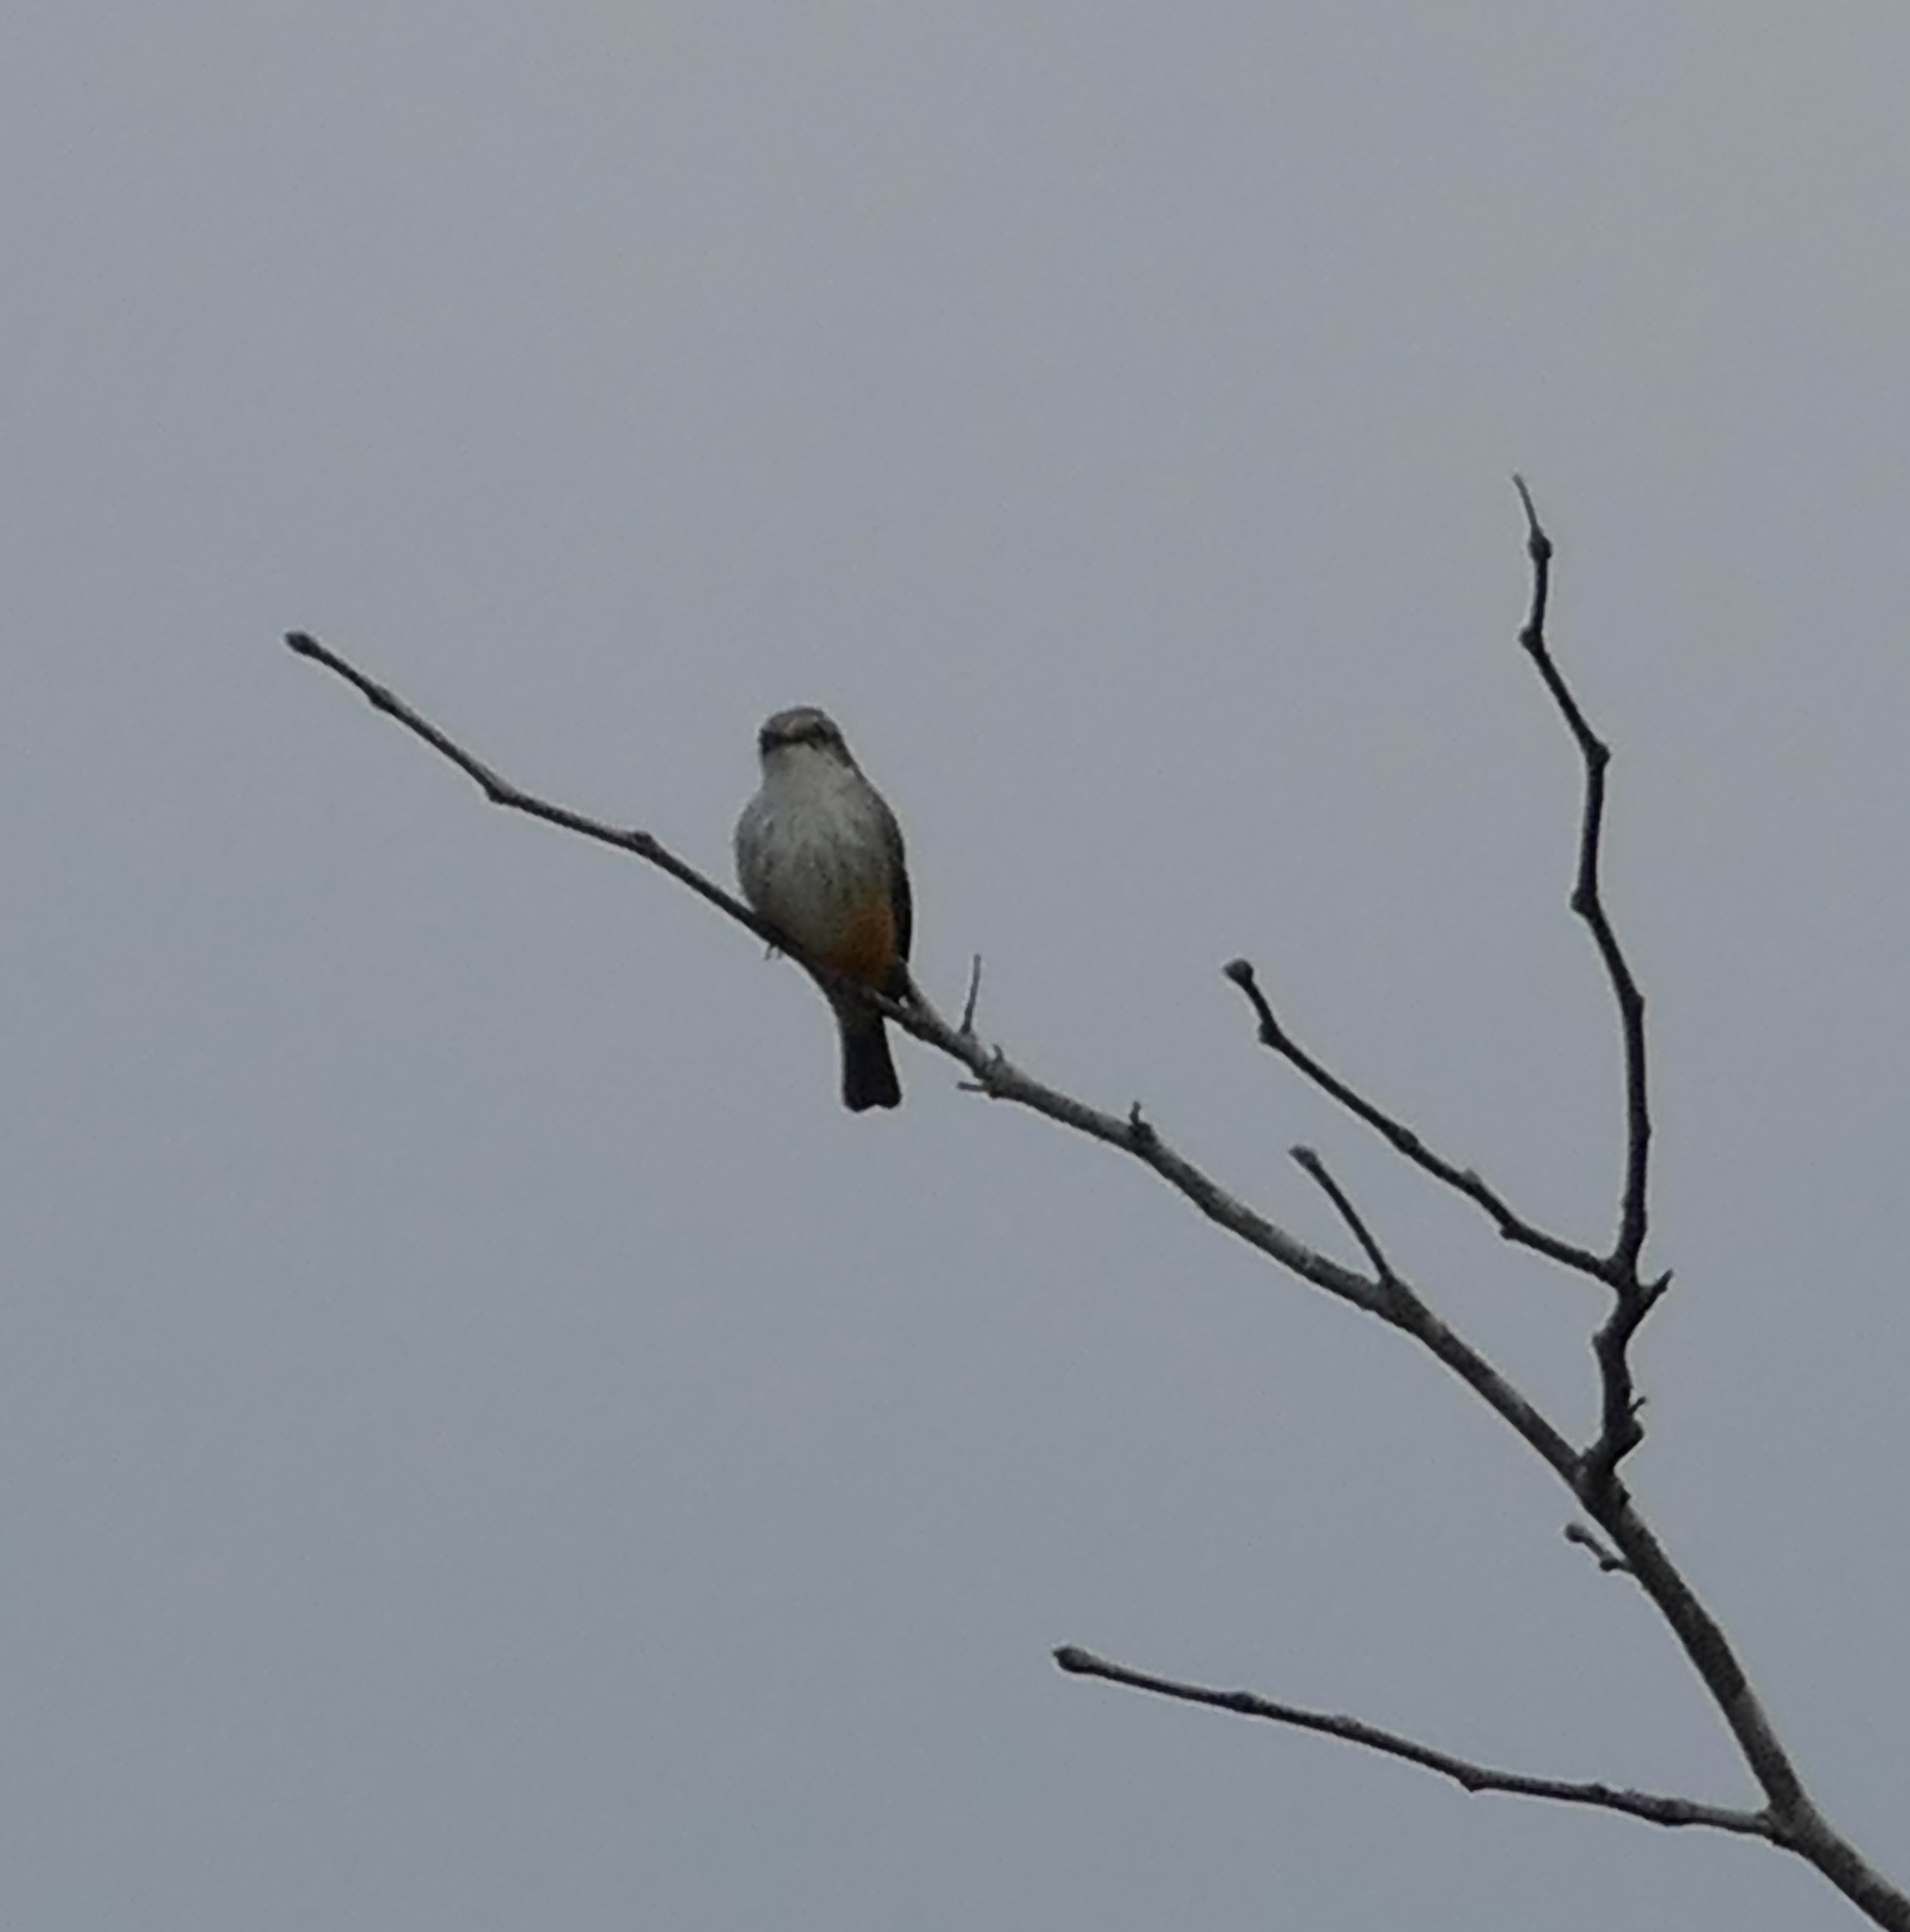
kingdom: Animalia
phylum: Chordata
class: Aves
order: Passeriformes
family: Tyrannidae
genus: Pyrocephalus
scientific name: Pyrocephalus rubinus
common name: Vermilion flycatcher
